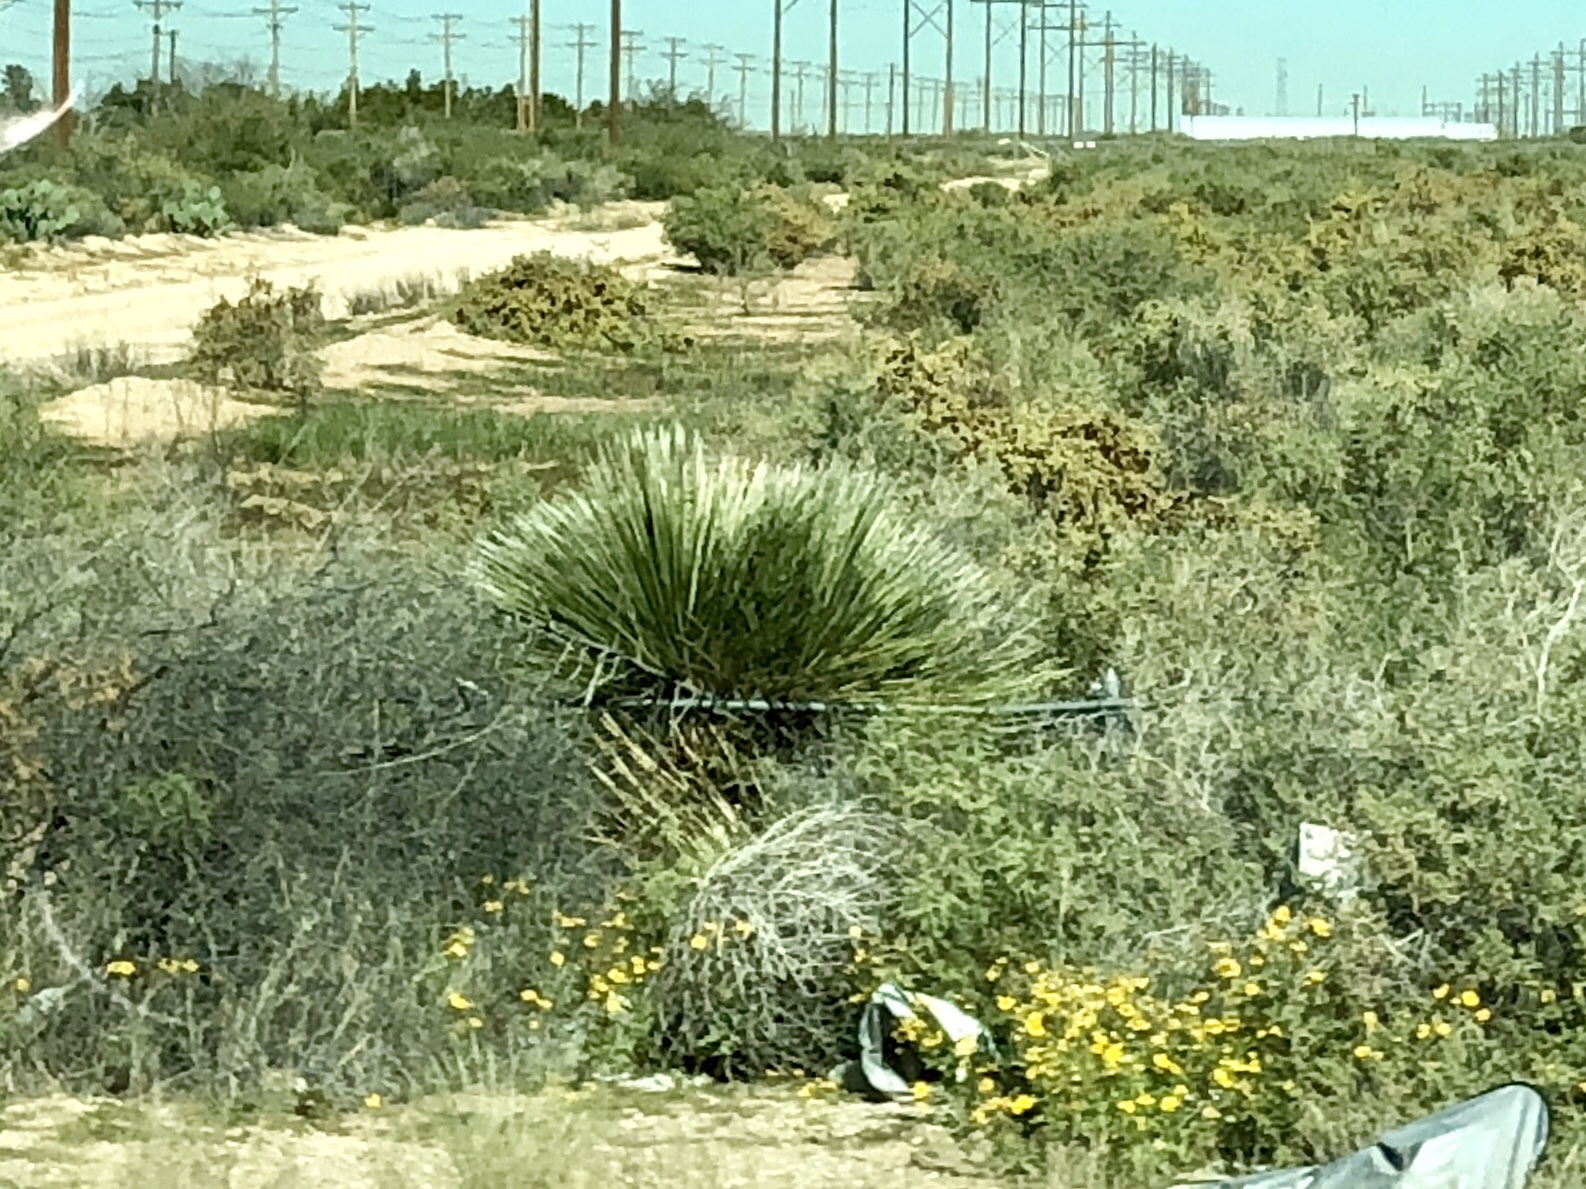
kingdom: Plantae
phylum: Tracheophyta
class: Liliopsida
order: Asparagales
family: Asparagaceae
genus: Yucca
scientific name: Yucca elata
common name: Palmella
